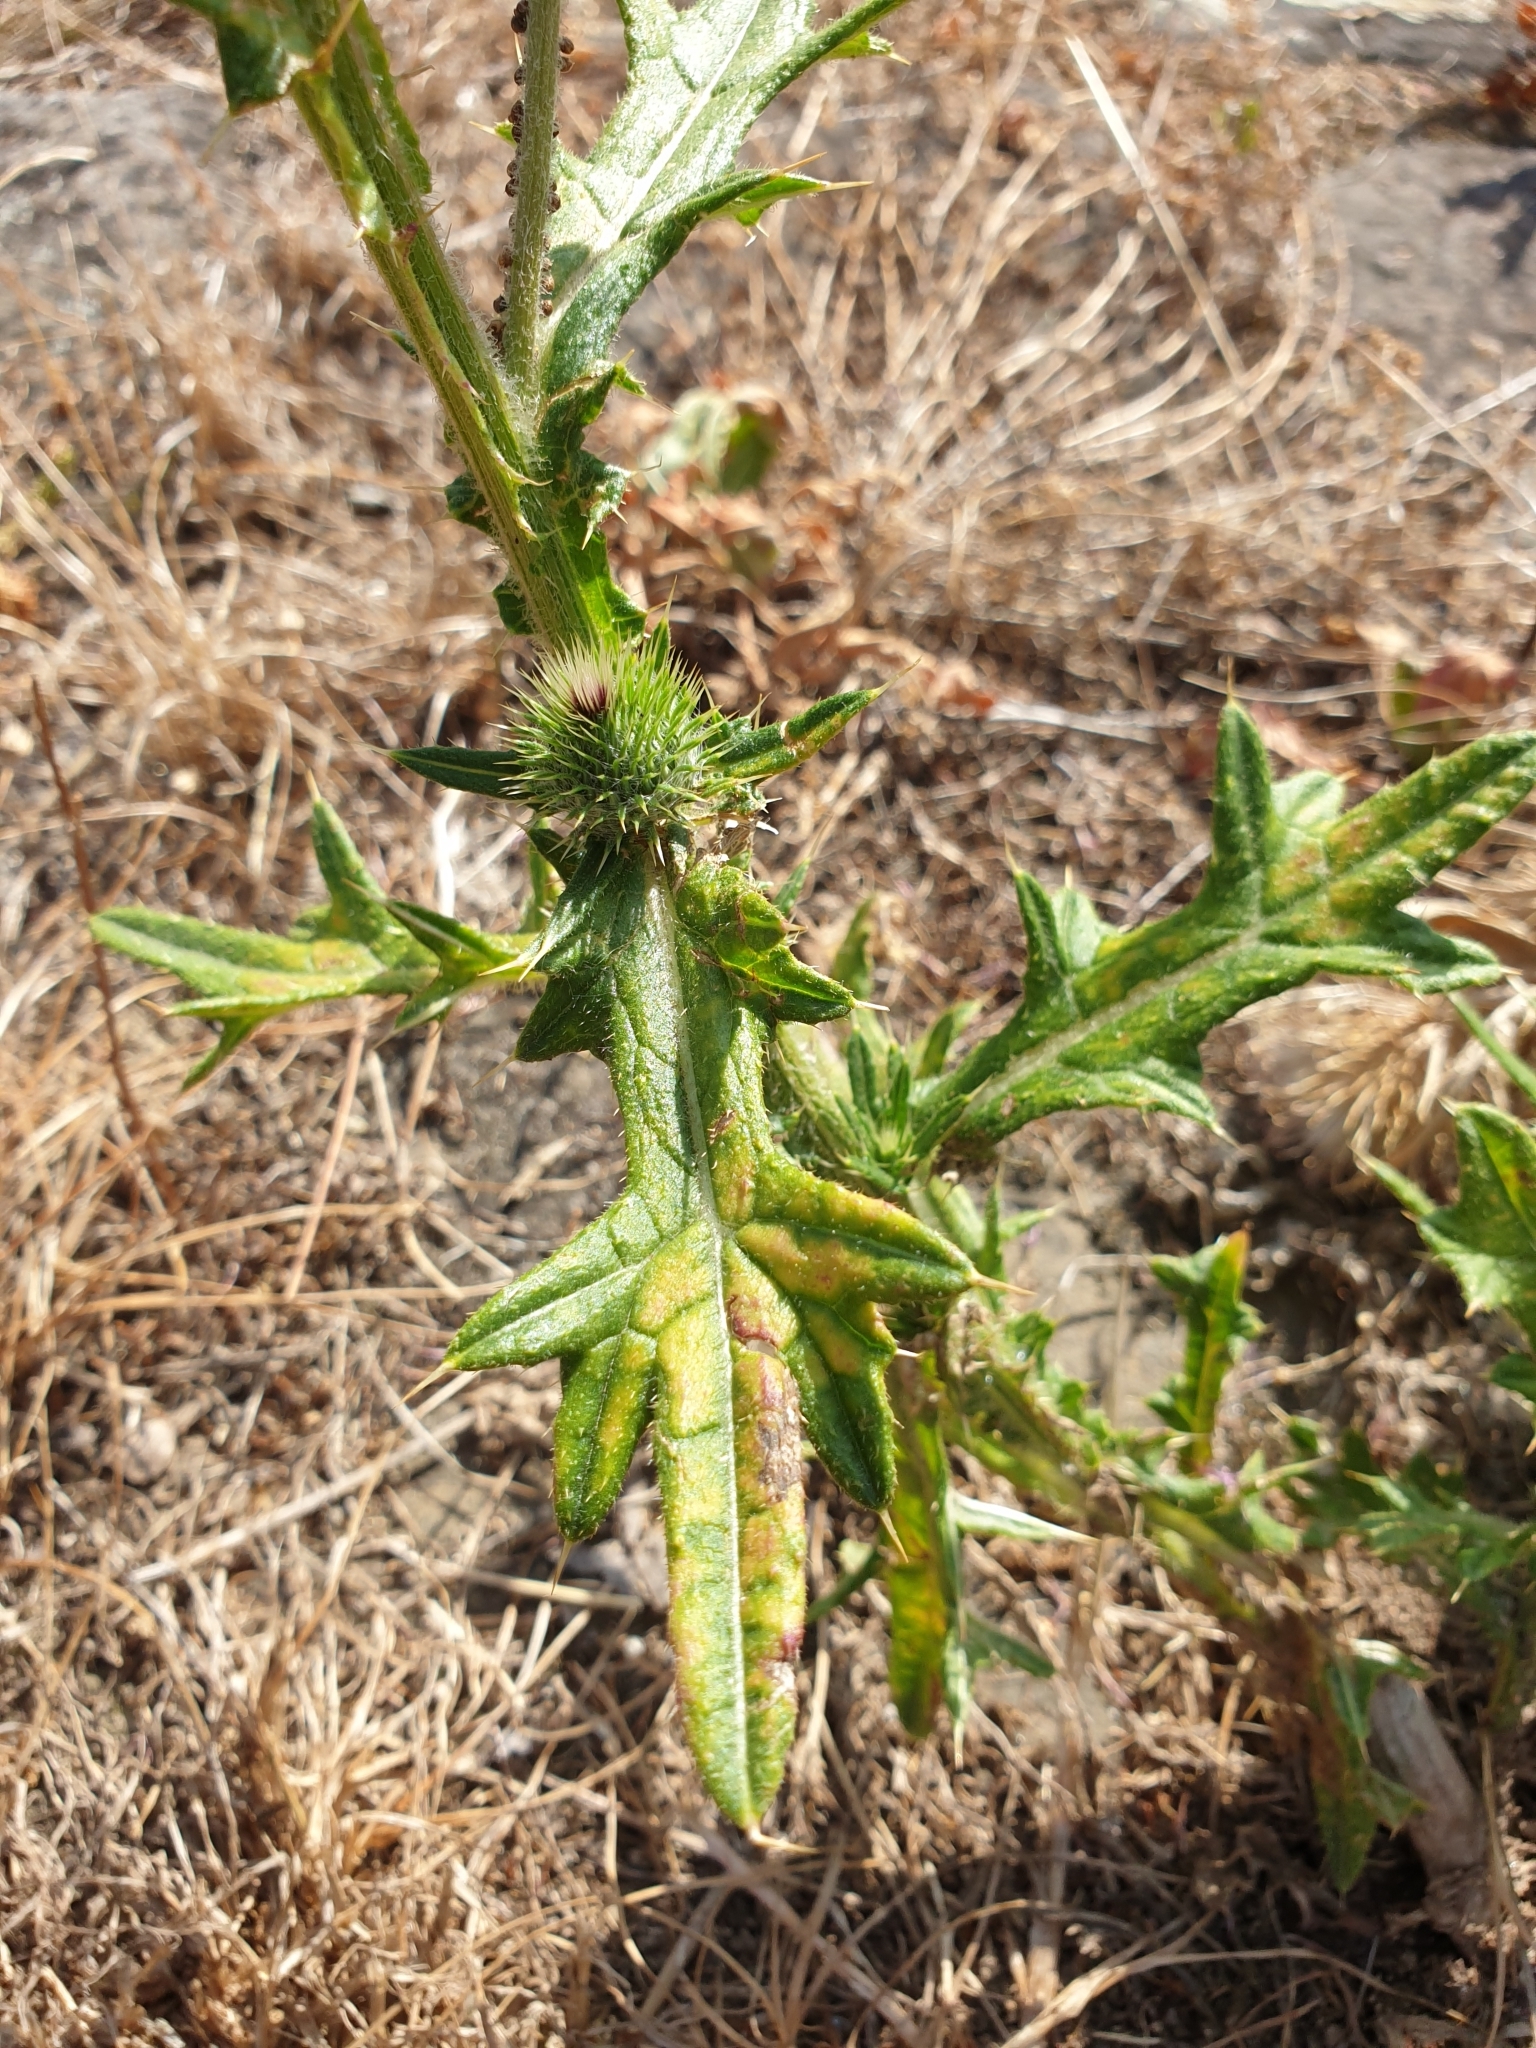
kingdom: Plantae
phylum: Tracheophyta
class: Magnoliopsida
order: Asterales
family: Asteraceae
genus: Cirsium
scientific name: Cirsium vulgare
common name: Bull thistle
